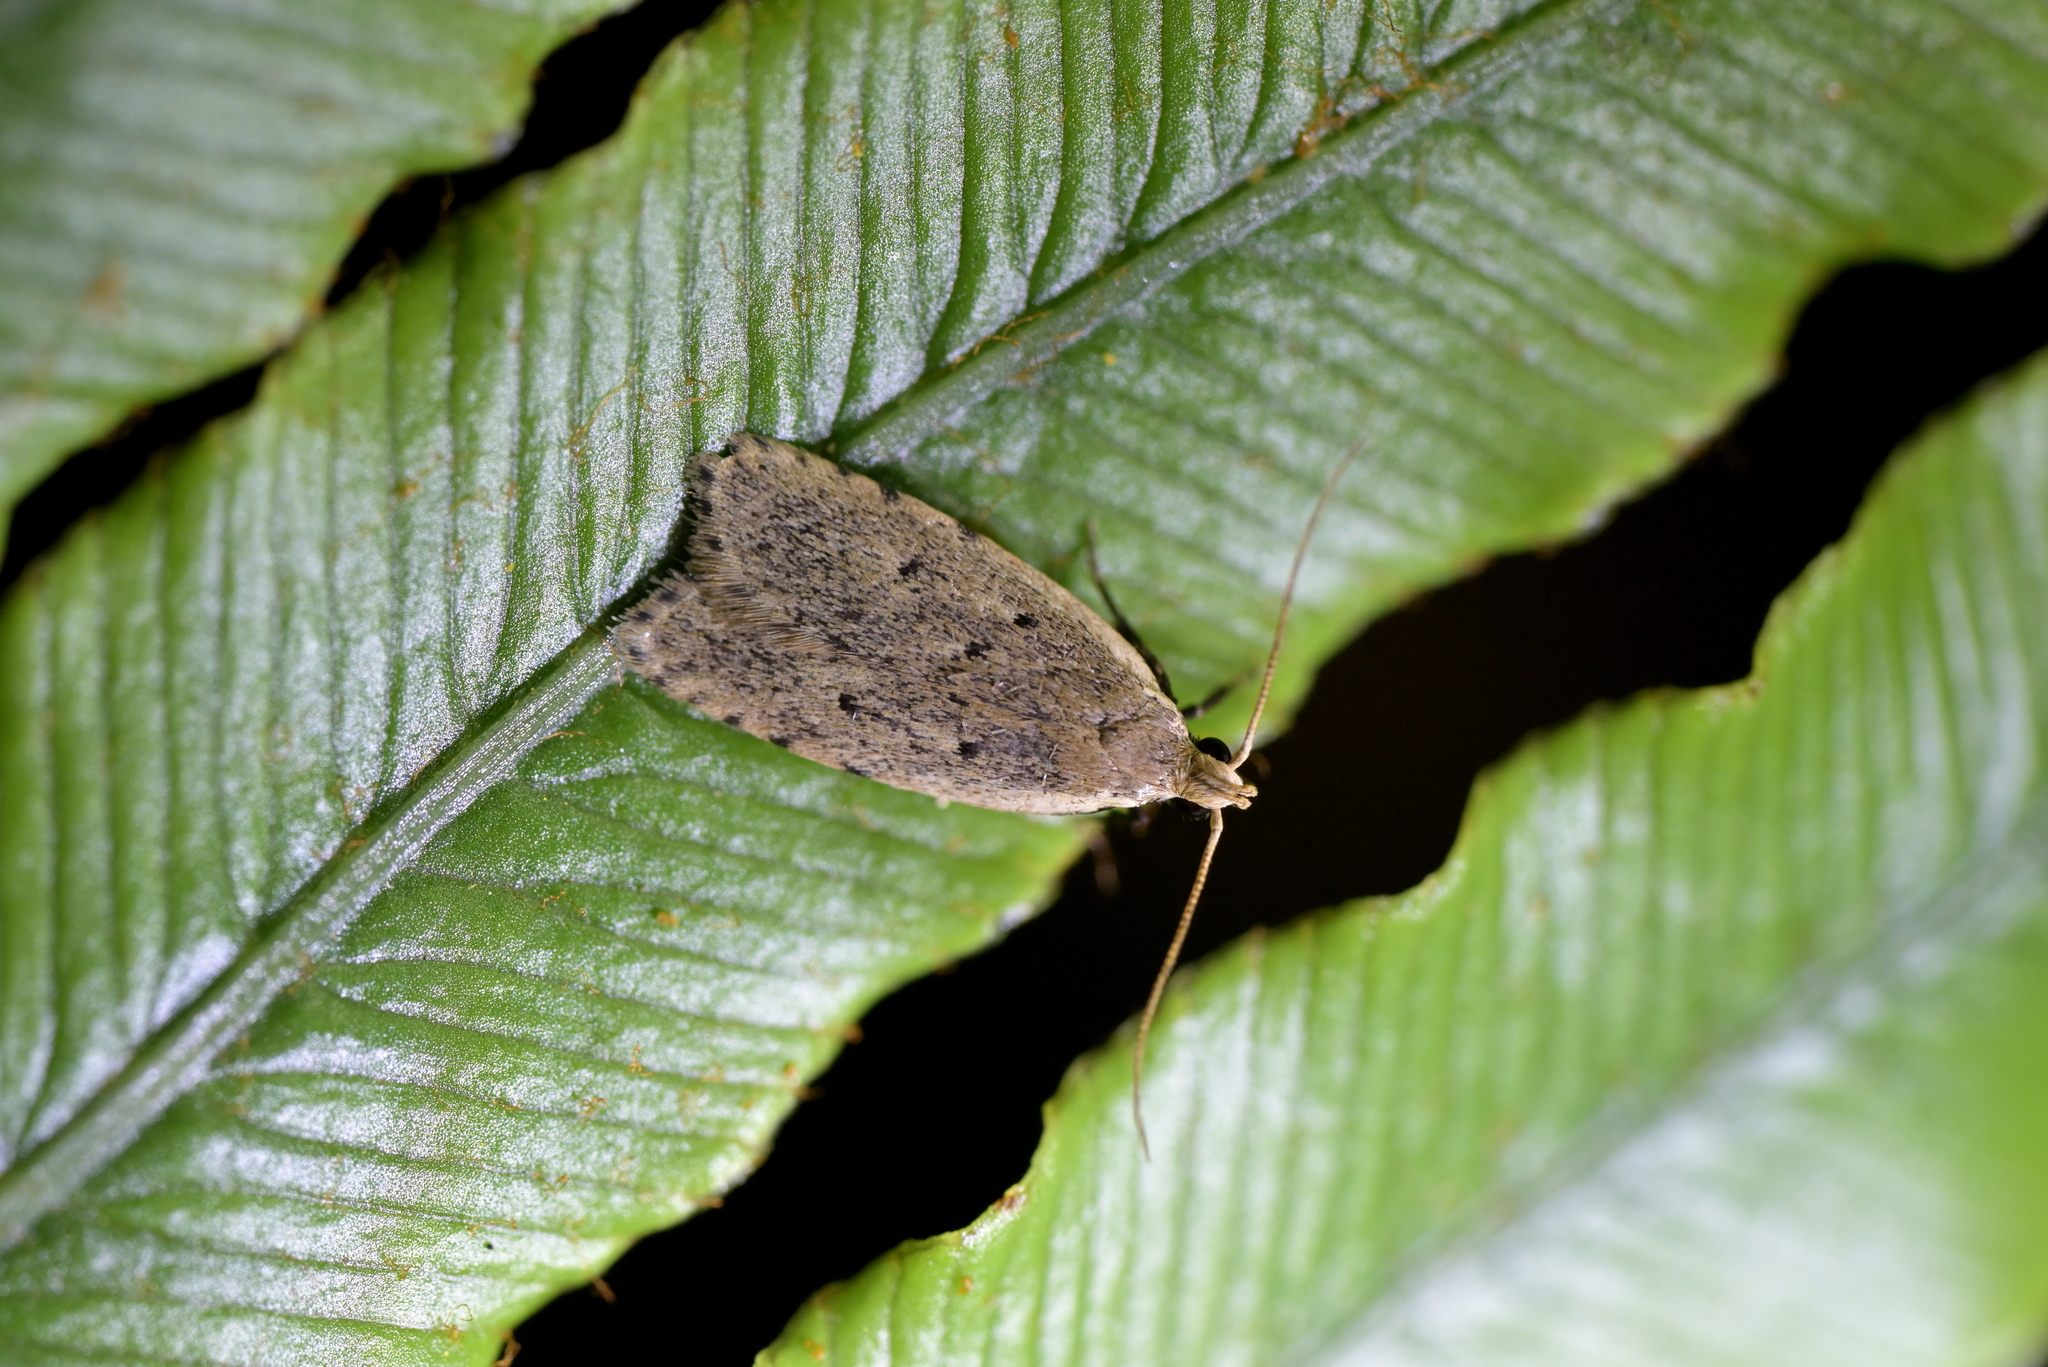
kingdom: Animalia
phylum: Arthropoda
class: Insecta
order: Lepidoptera
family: Oecophoridae
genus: Gymnobathra
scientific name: Gymnobathra calliploca
